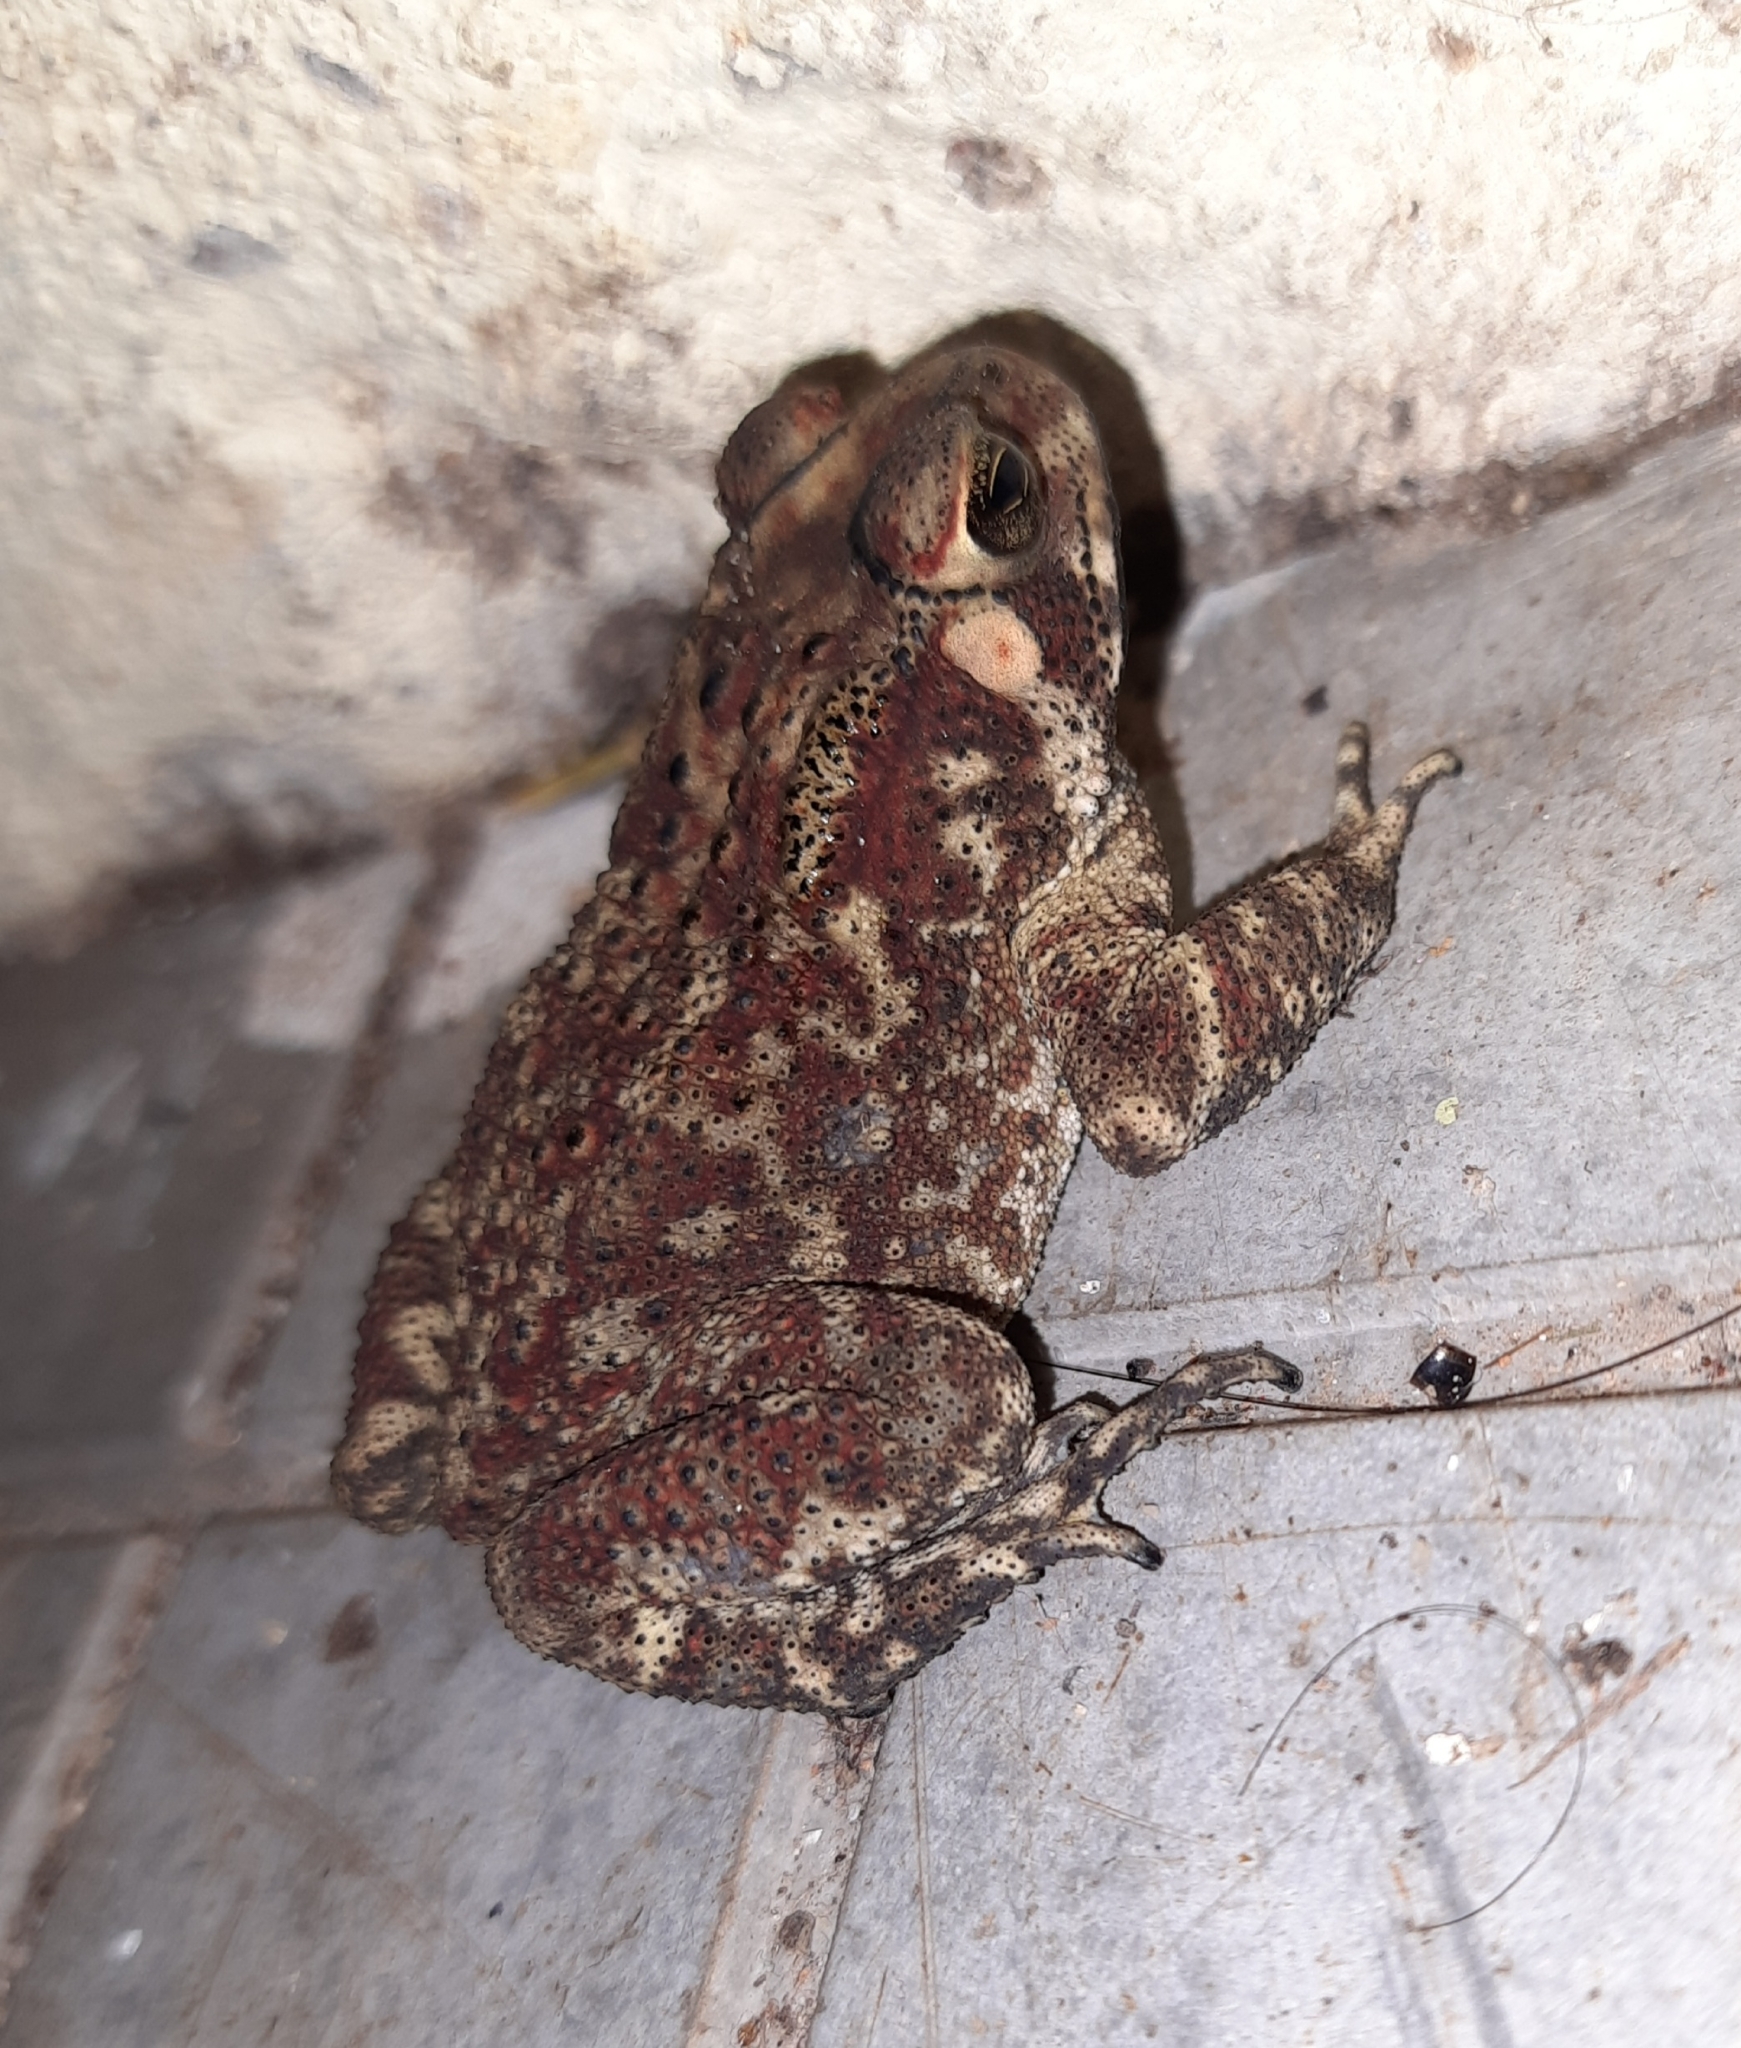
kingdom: Animalia
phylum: Chordata
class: Amphibia
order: Anura
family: Bufonidae
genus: Duttaphrynus
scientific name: Duttaphrynus melanostictus
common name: Common sunda toad
